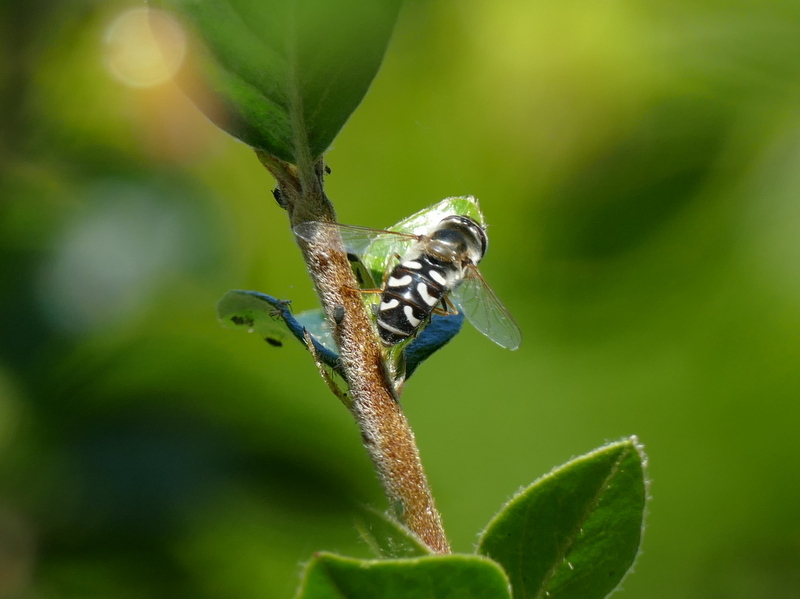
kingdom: Animalia
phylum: Arthropoda
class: Insecta
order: Diptera
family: Syrphidae
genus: Scaeva
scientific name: Scaeva pyrastri
